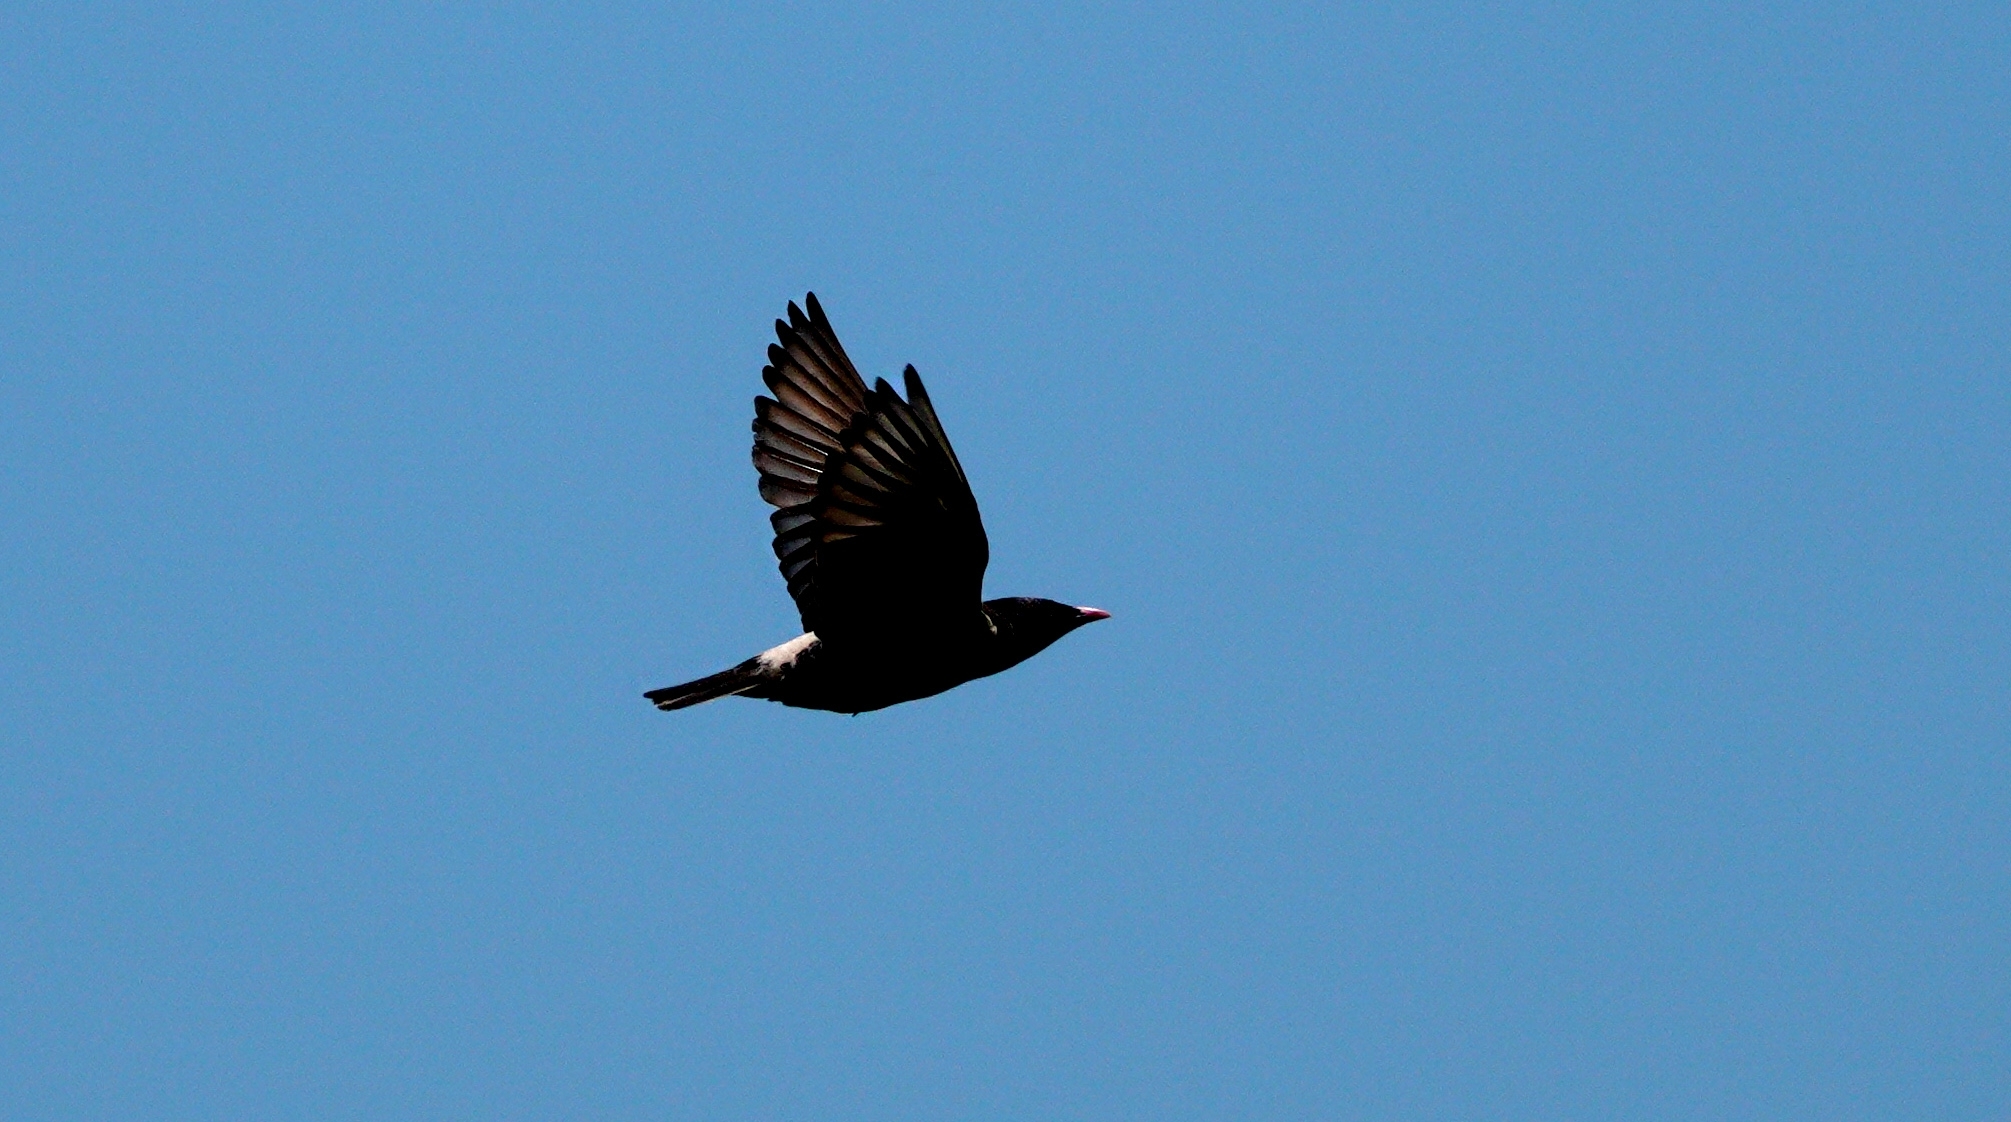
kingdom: Animalia
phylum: Chordata
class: Aves
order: Passeriformes
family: Sturnidae
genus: Pastor
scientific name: Pastor roseus
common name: Rosy starling
